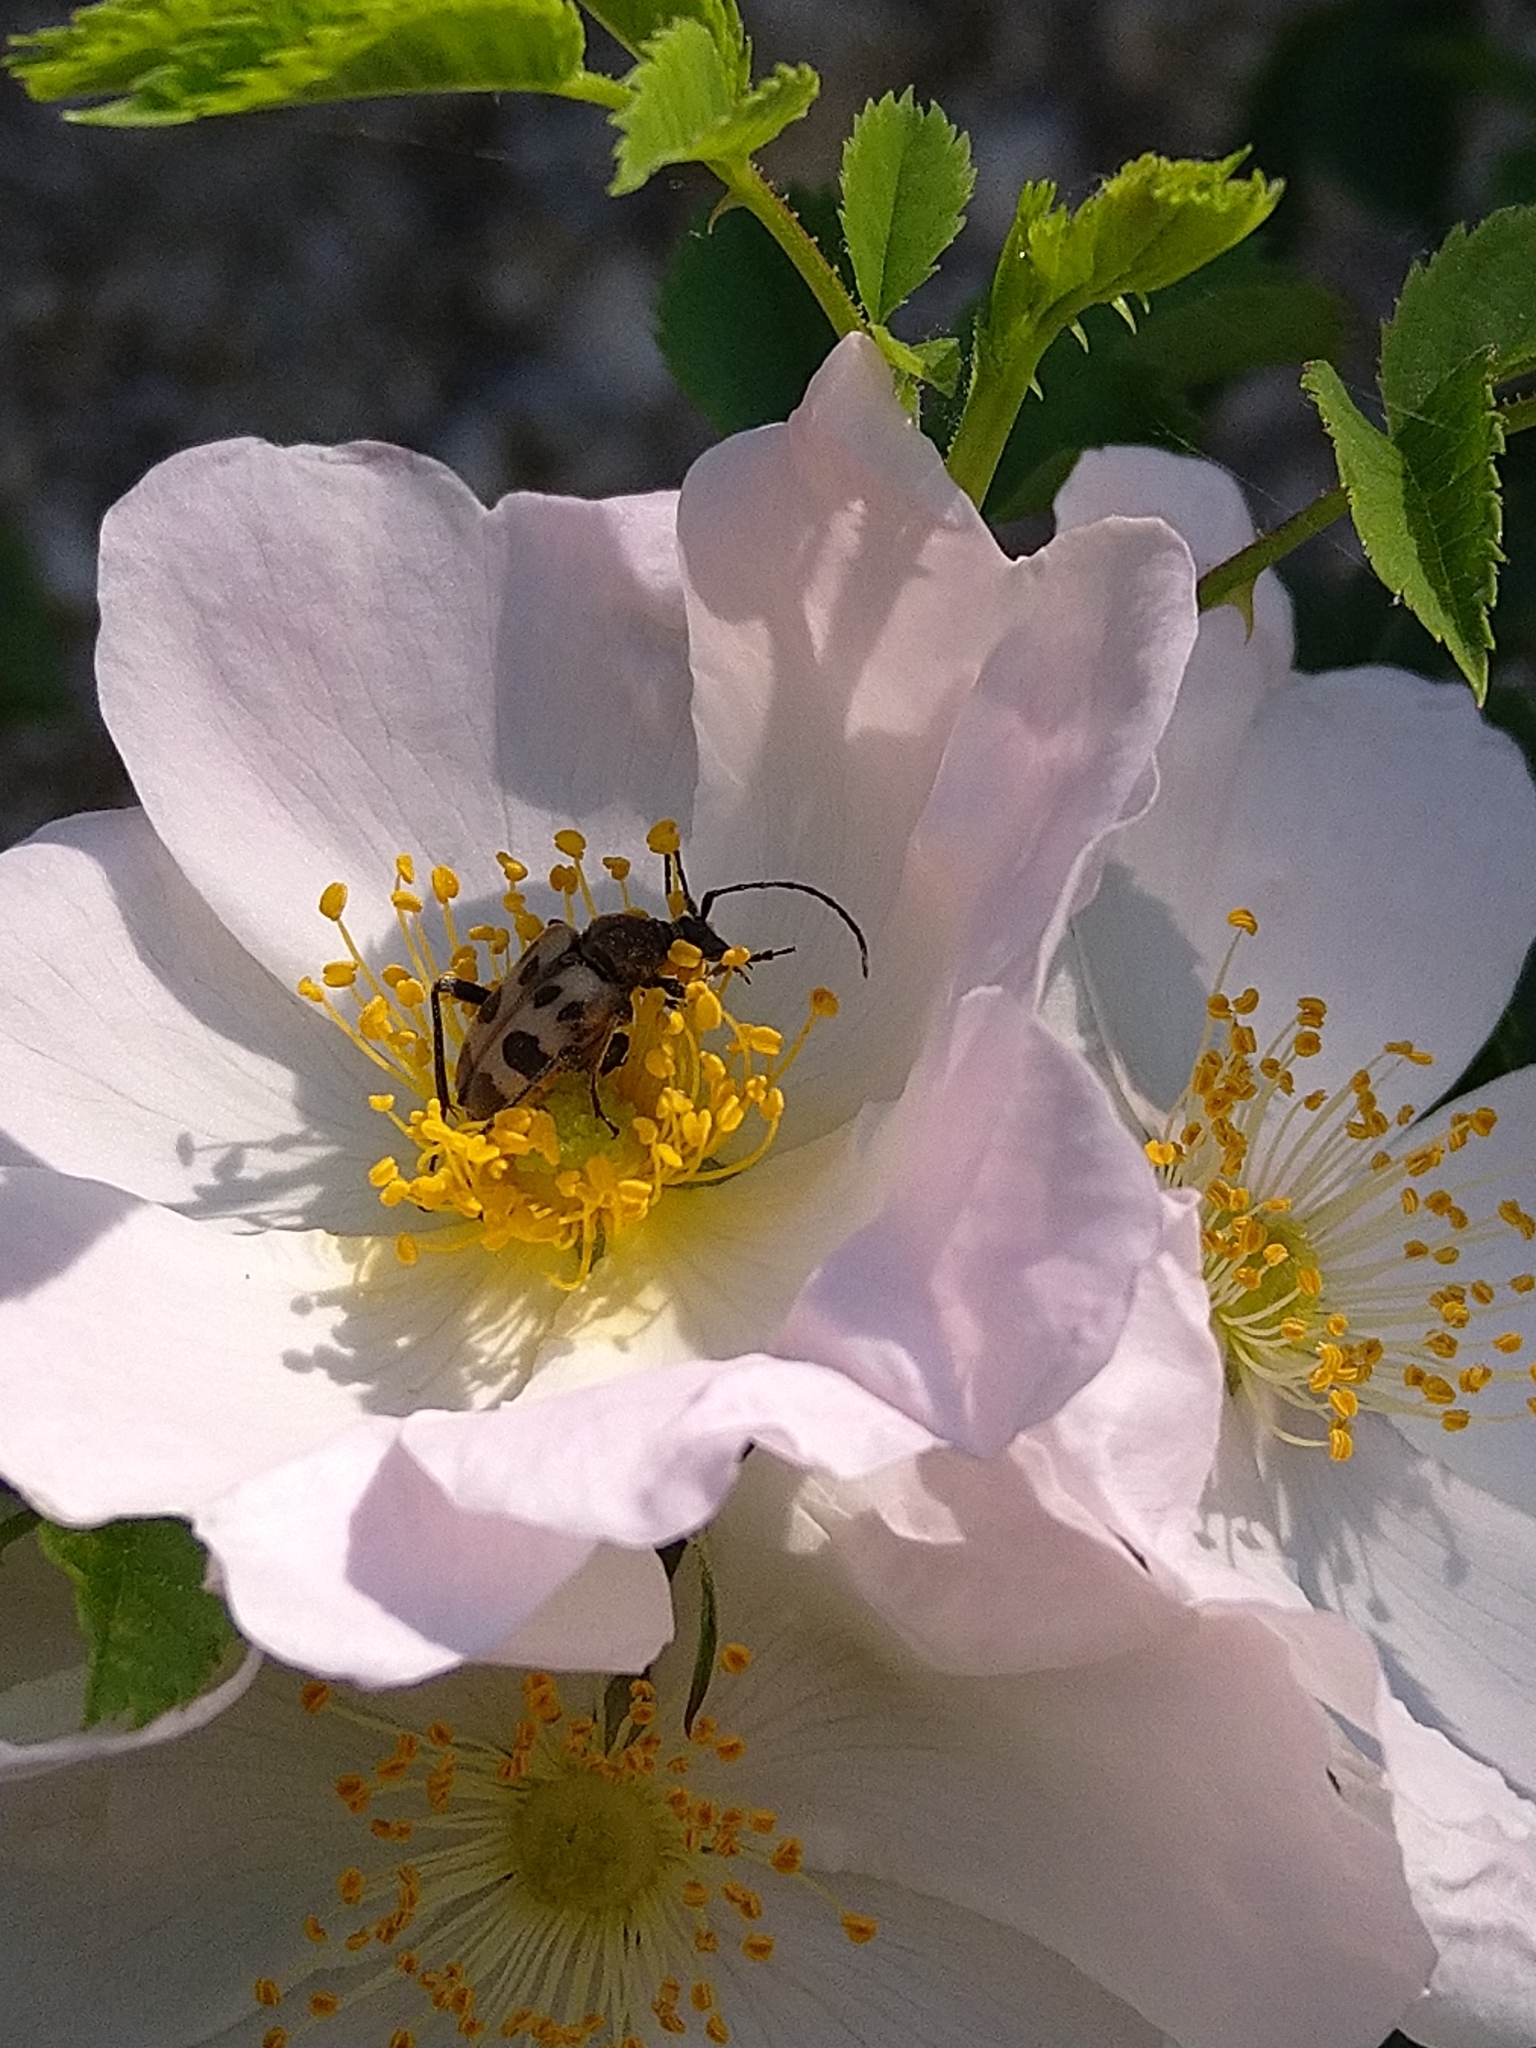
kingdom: Animalia
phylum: Arthropoda
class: Insecta
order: Coleoptera
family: Cerambycidae
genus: Pachytodes
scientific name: Pachytodes cerambyciformis
